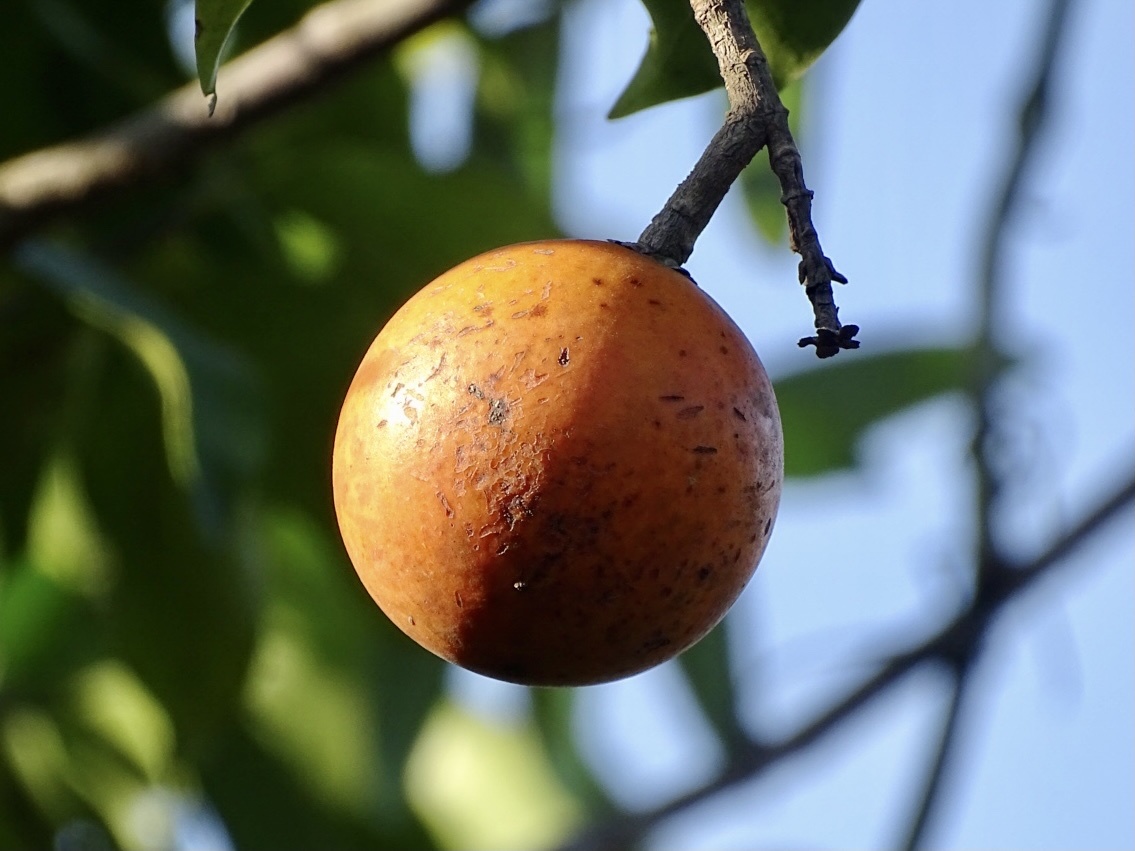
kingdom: Plantae
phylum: Tracheophyta
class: Magnoliopsida
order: Gentianales
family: Apocynaceae
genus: Melodinus
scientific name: Melodinus suaveolens
